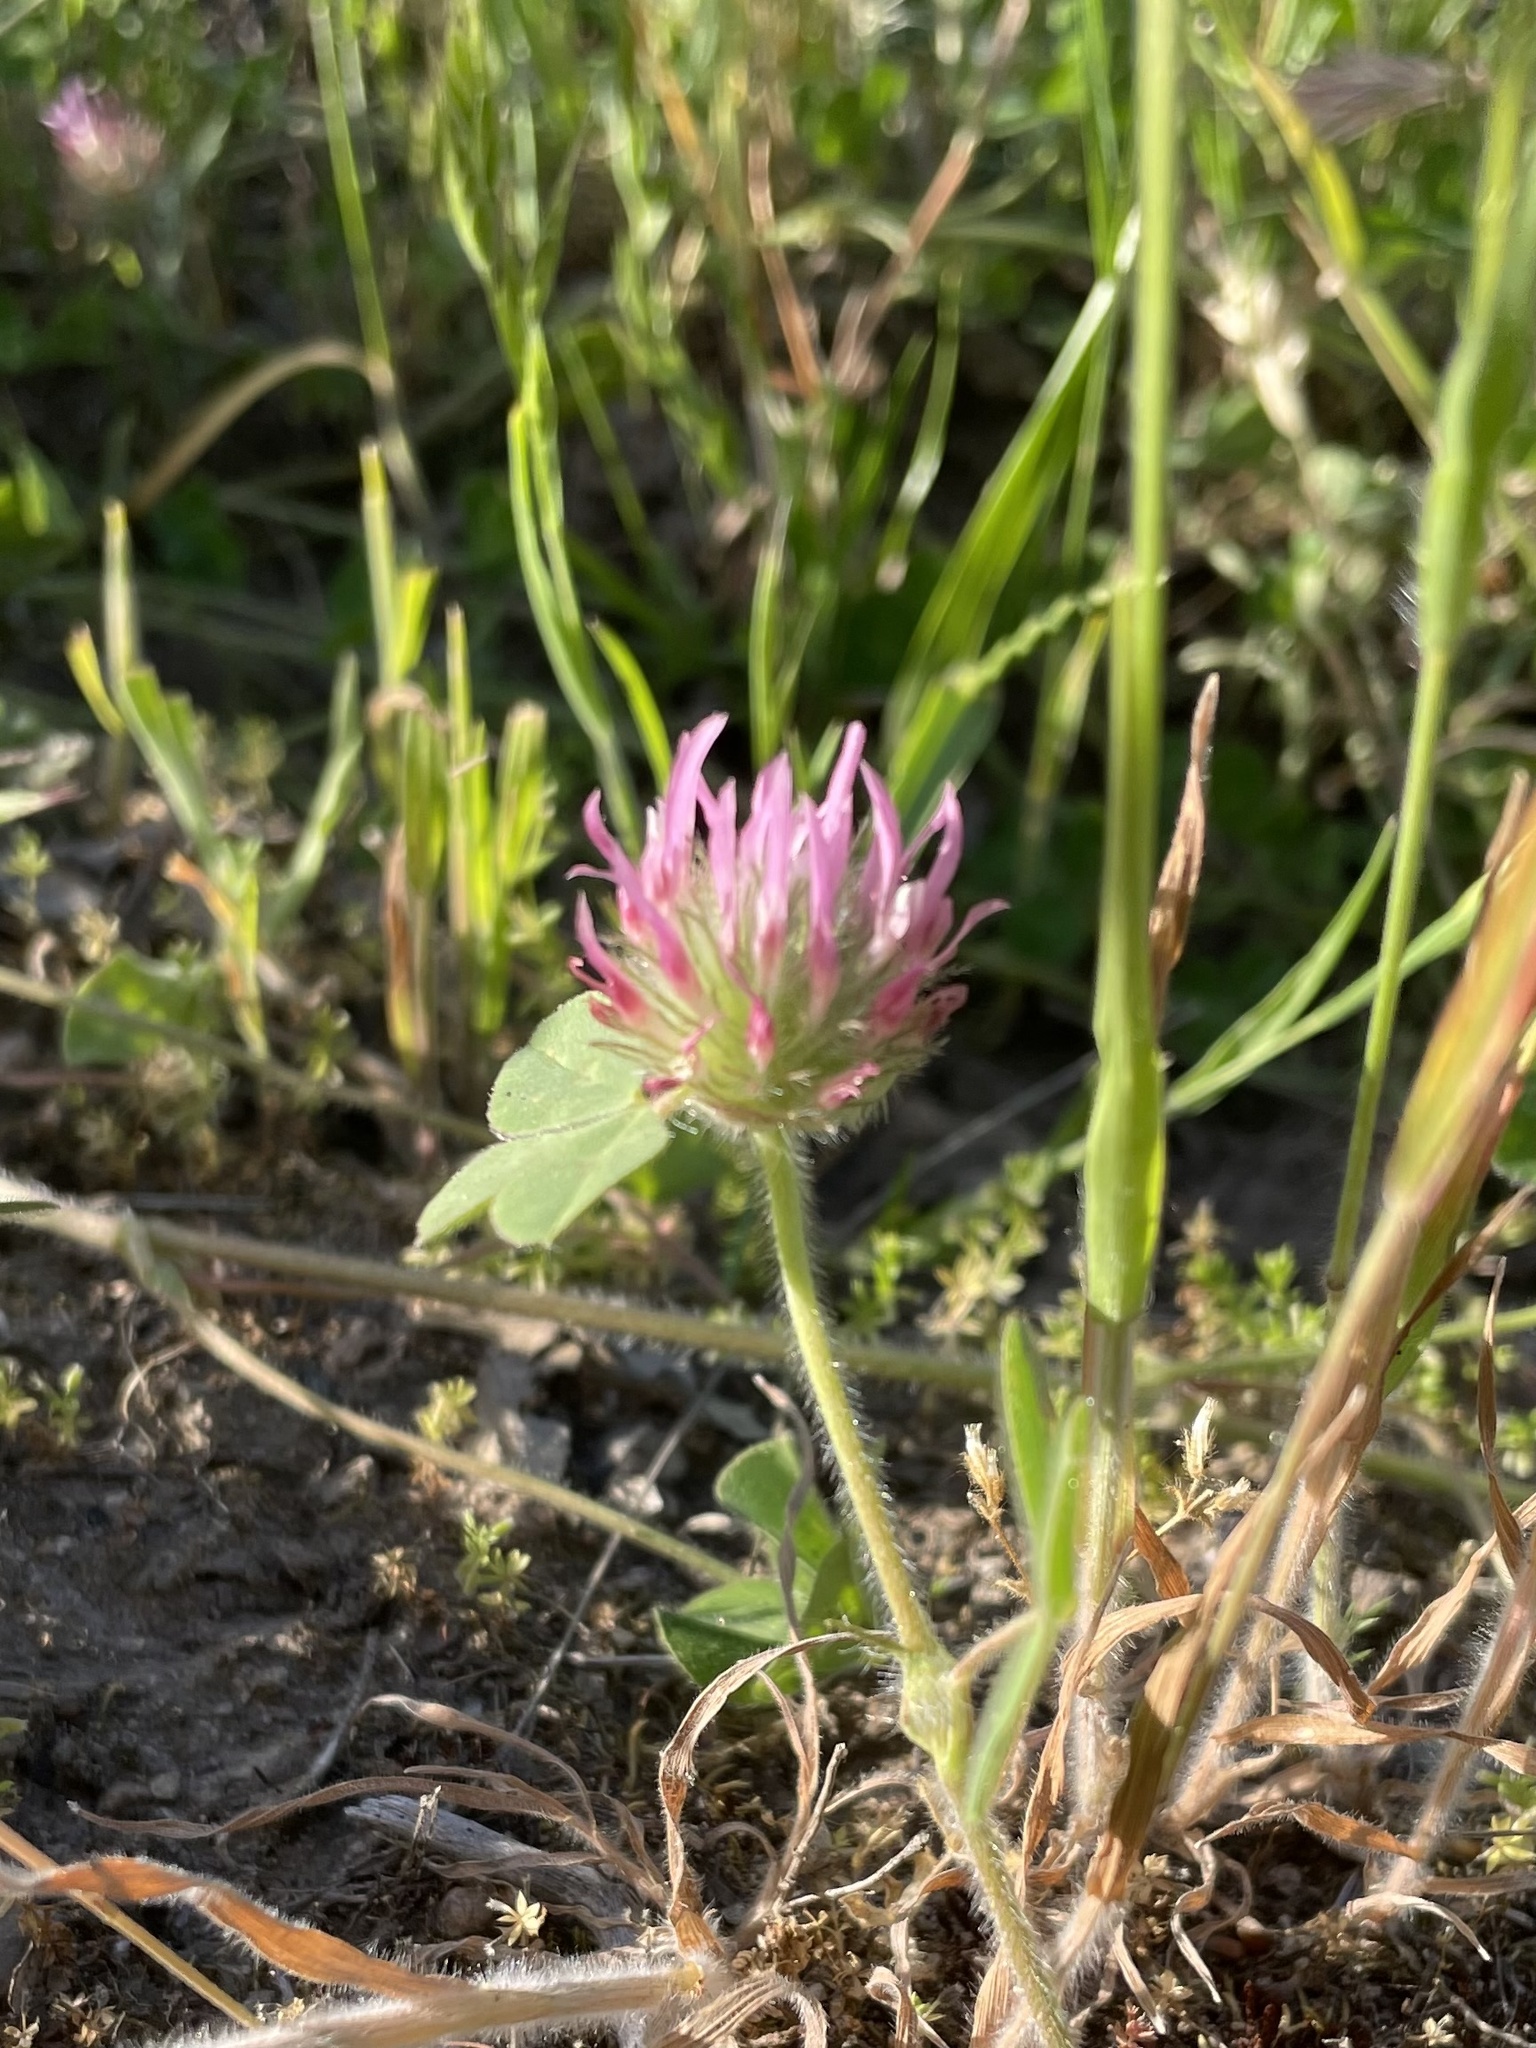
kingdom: Plantae
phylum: Tracheophyta
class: Magnoliopsida
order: Fabales
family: Fabaceae
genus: Trifolium
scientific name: Trifolium hirtum
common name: Rose clover
